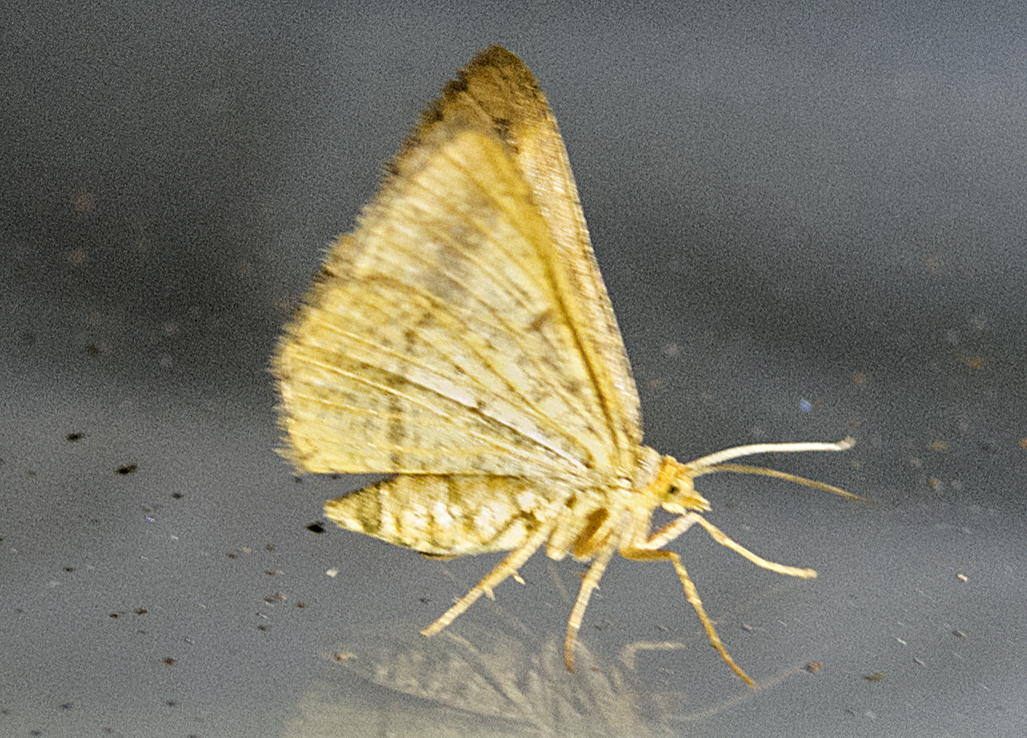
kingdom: Animalia
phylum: Arthropoda
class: Insecta
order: Lepidoptera
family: Geometridae
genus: Tephrina
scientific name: Tephrina arenacearia
